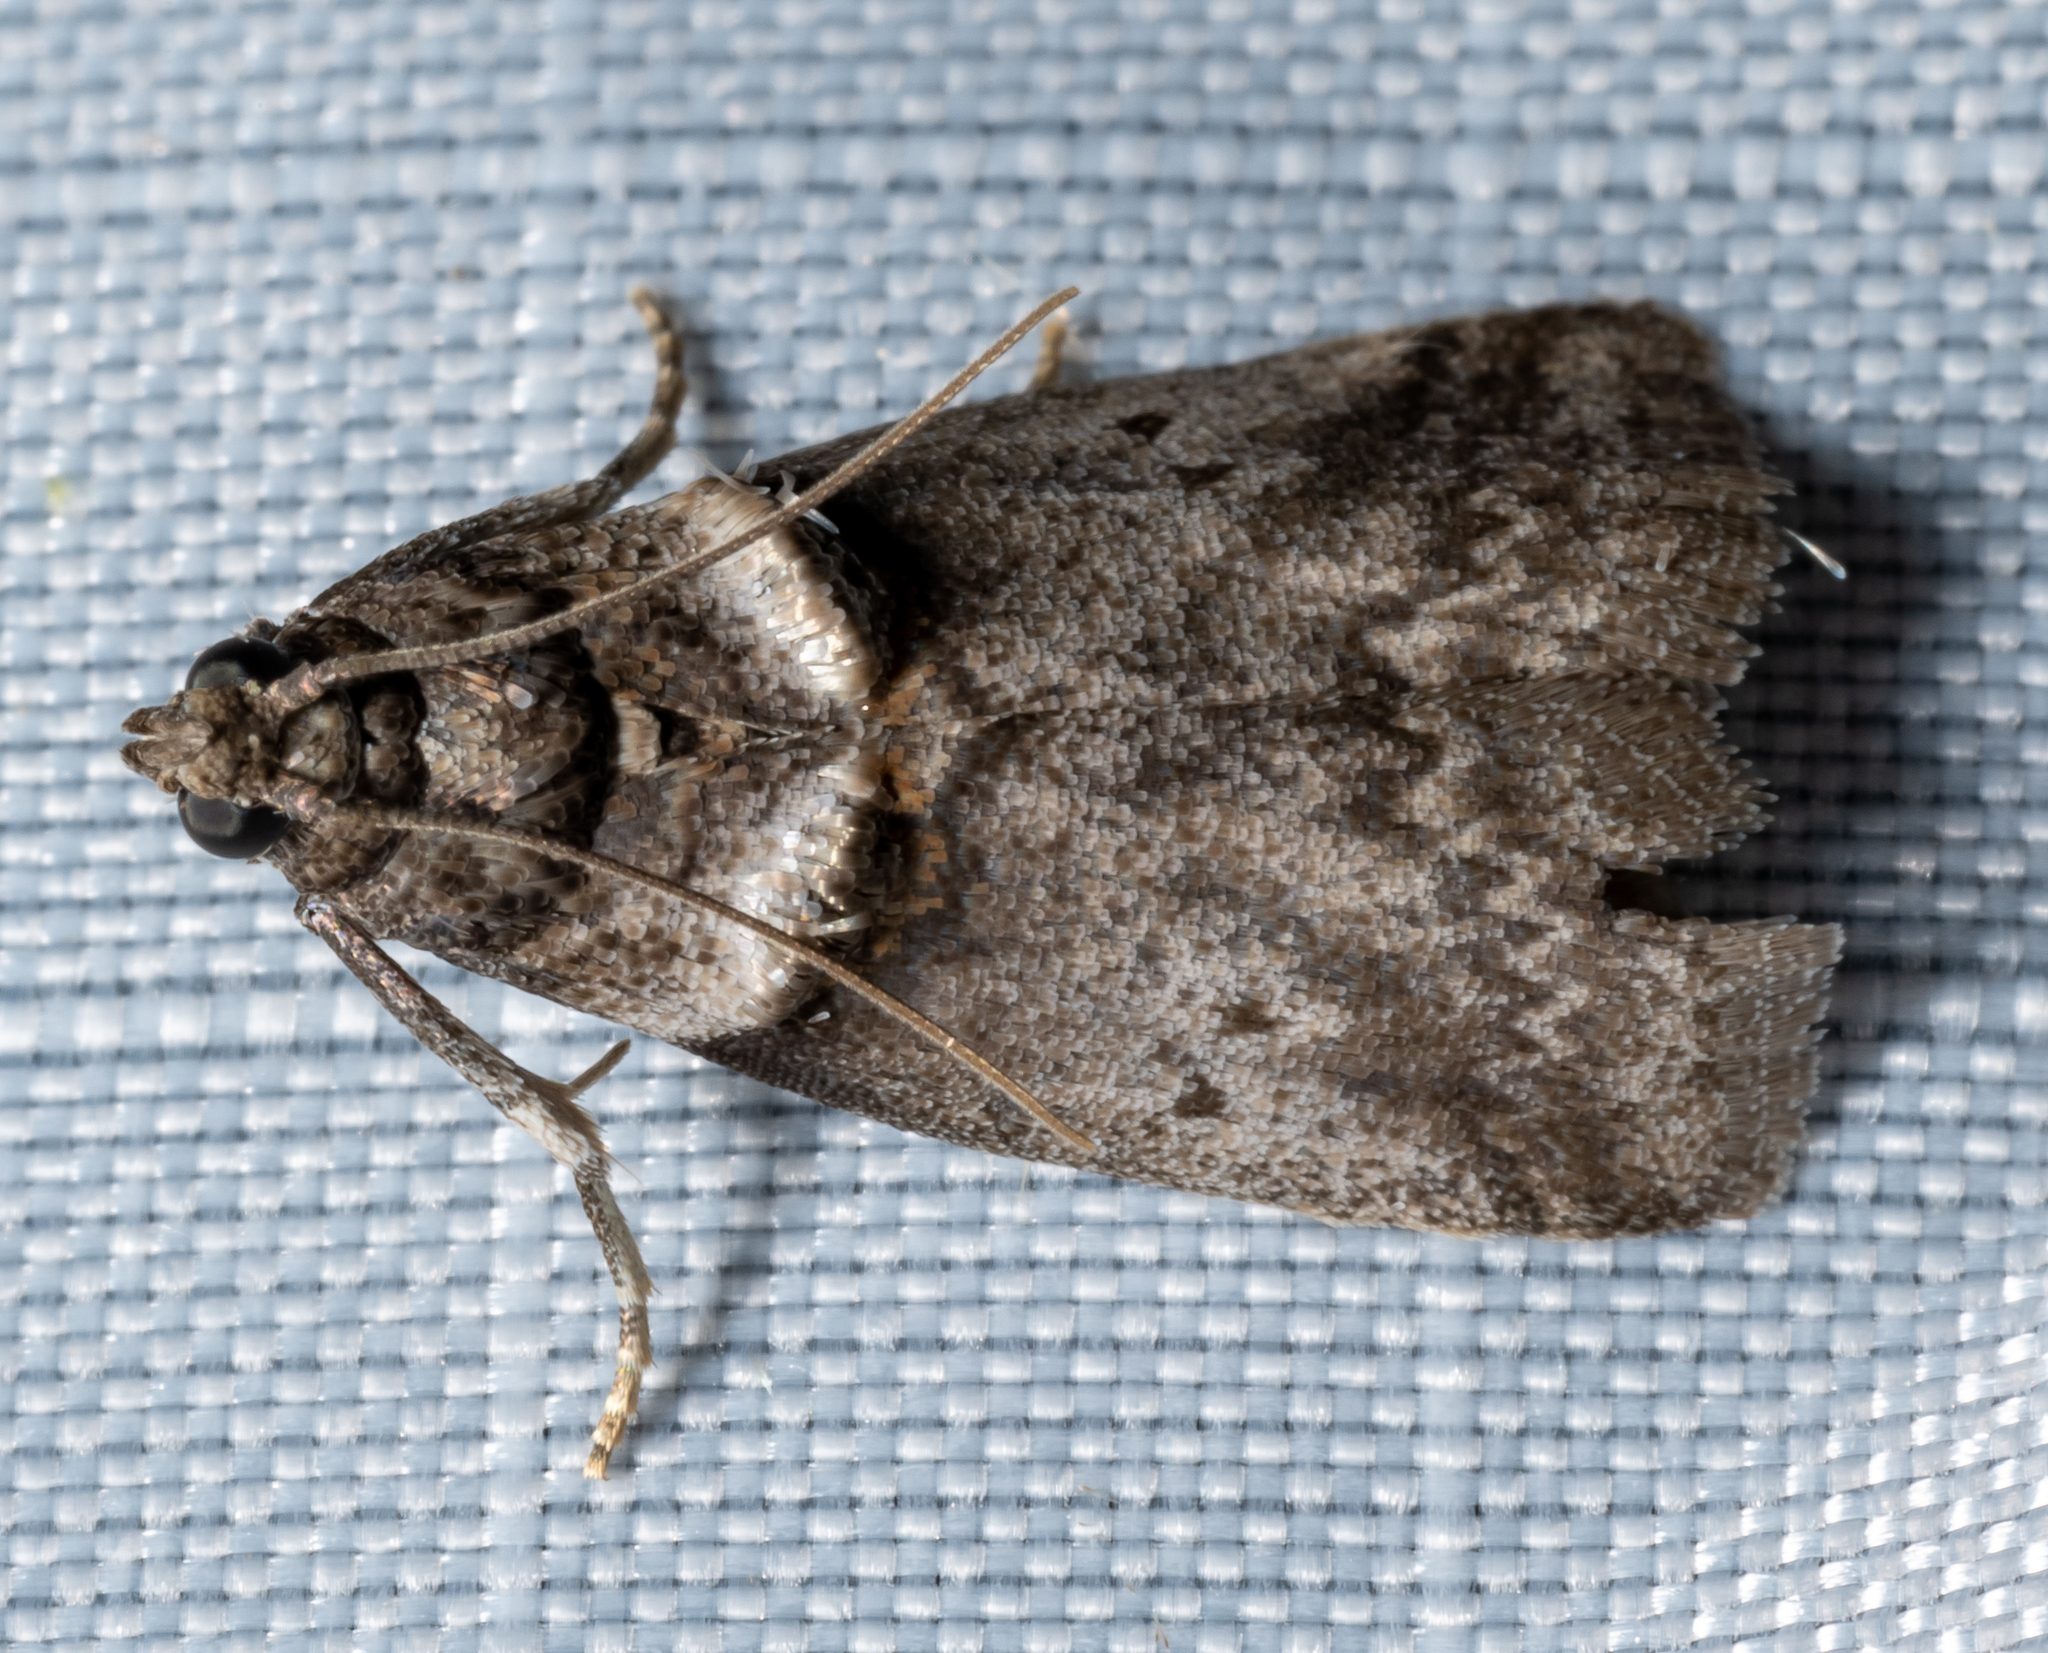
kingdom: Animalia
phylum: Arthropoda
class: Insecta
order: Lepidoptera
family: Pyralidae
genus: Acrobasis
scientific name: Acrobasis caryae
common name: Hickory shoot borer moth
